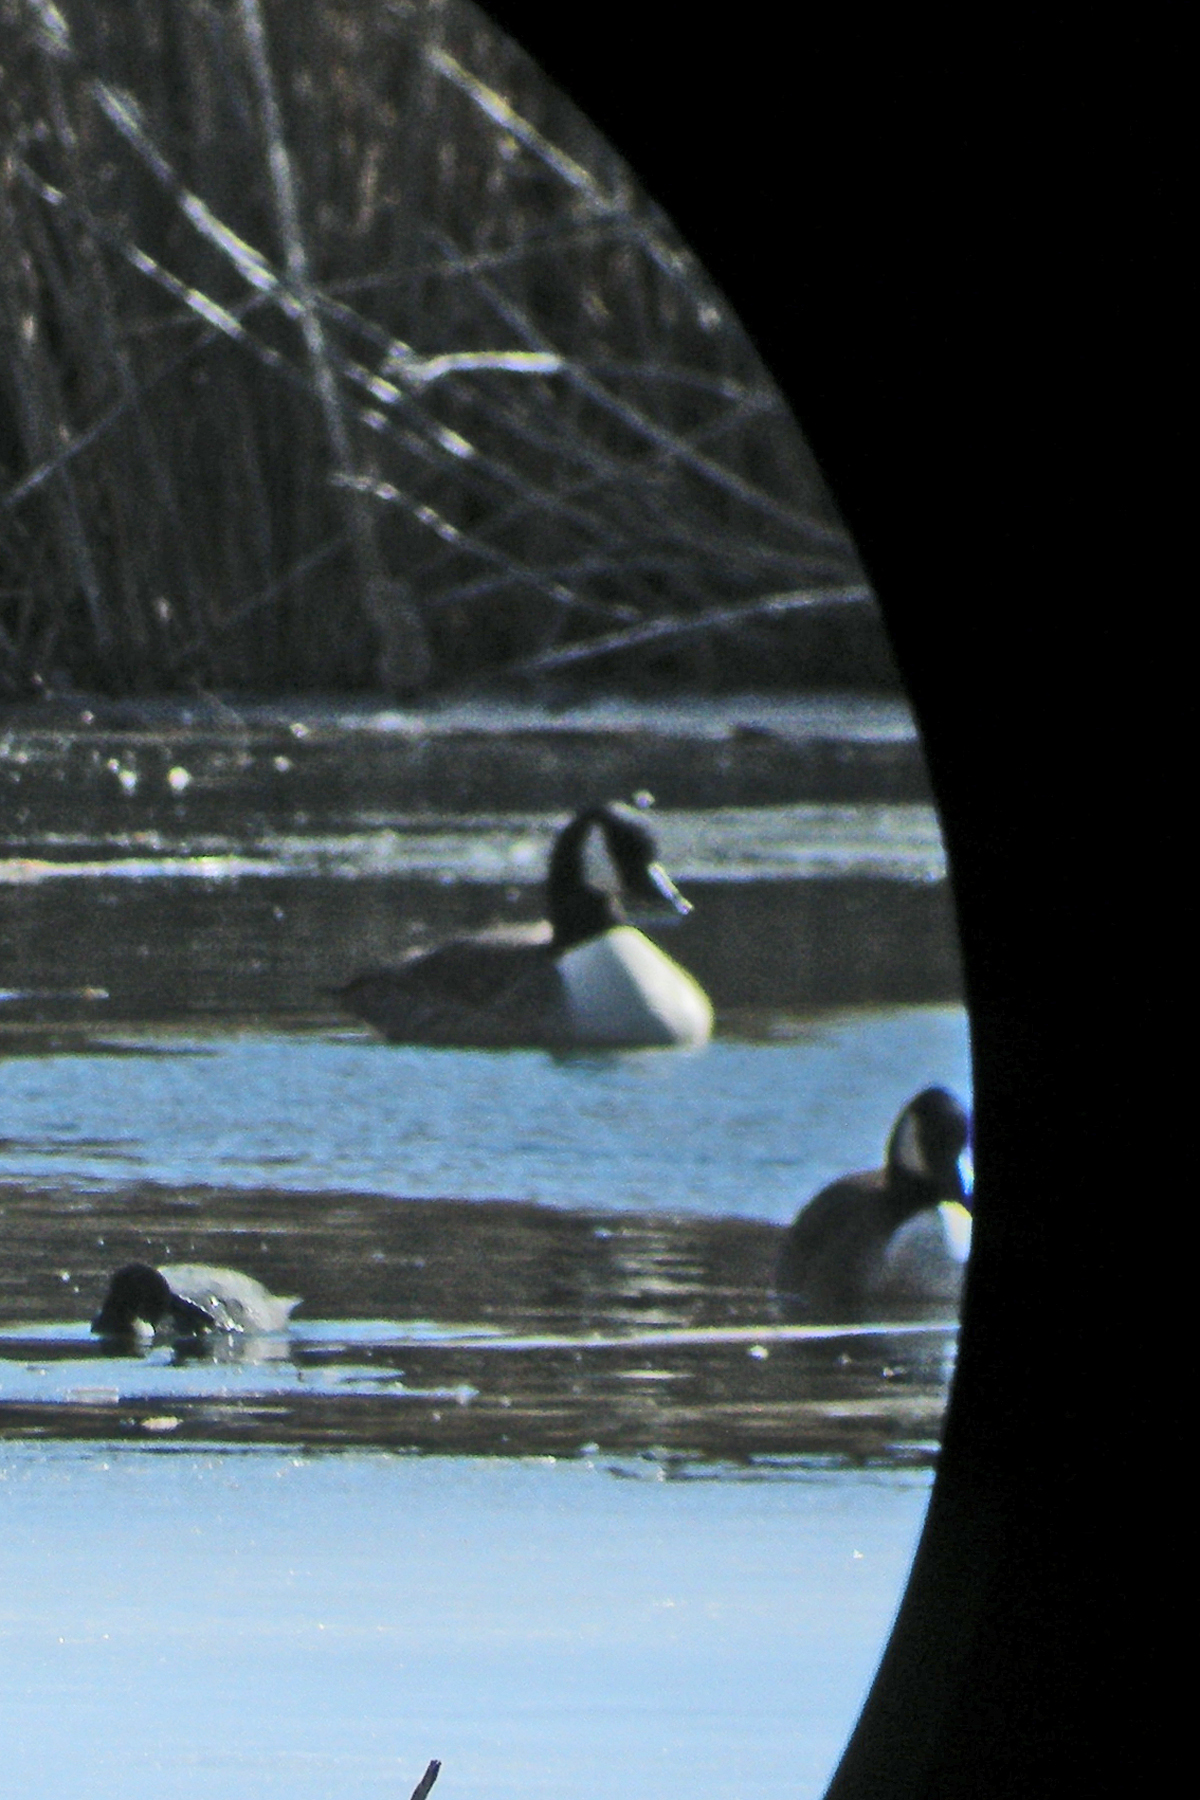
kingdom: Animalia
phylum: Chordata
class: Aves
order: Anseriformes
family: Anatidae
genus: Branta
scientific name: Branta canadensis
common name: Canada goose
